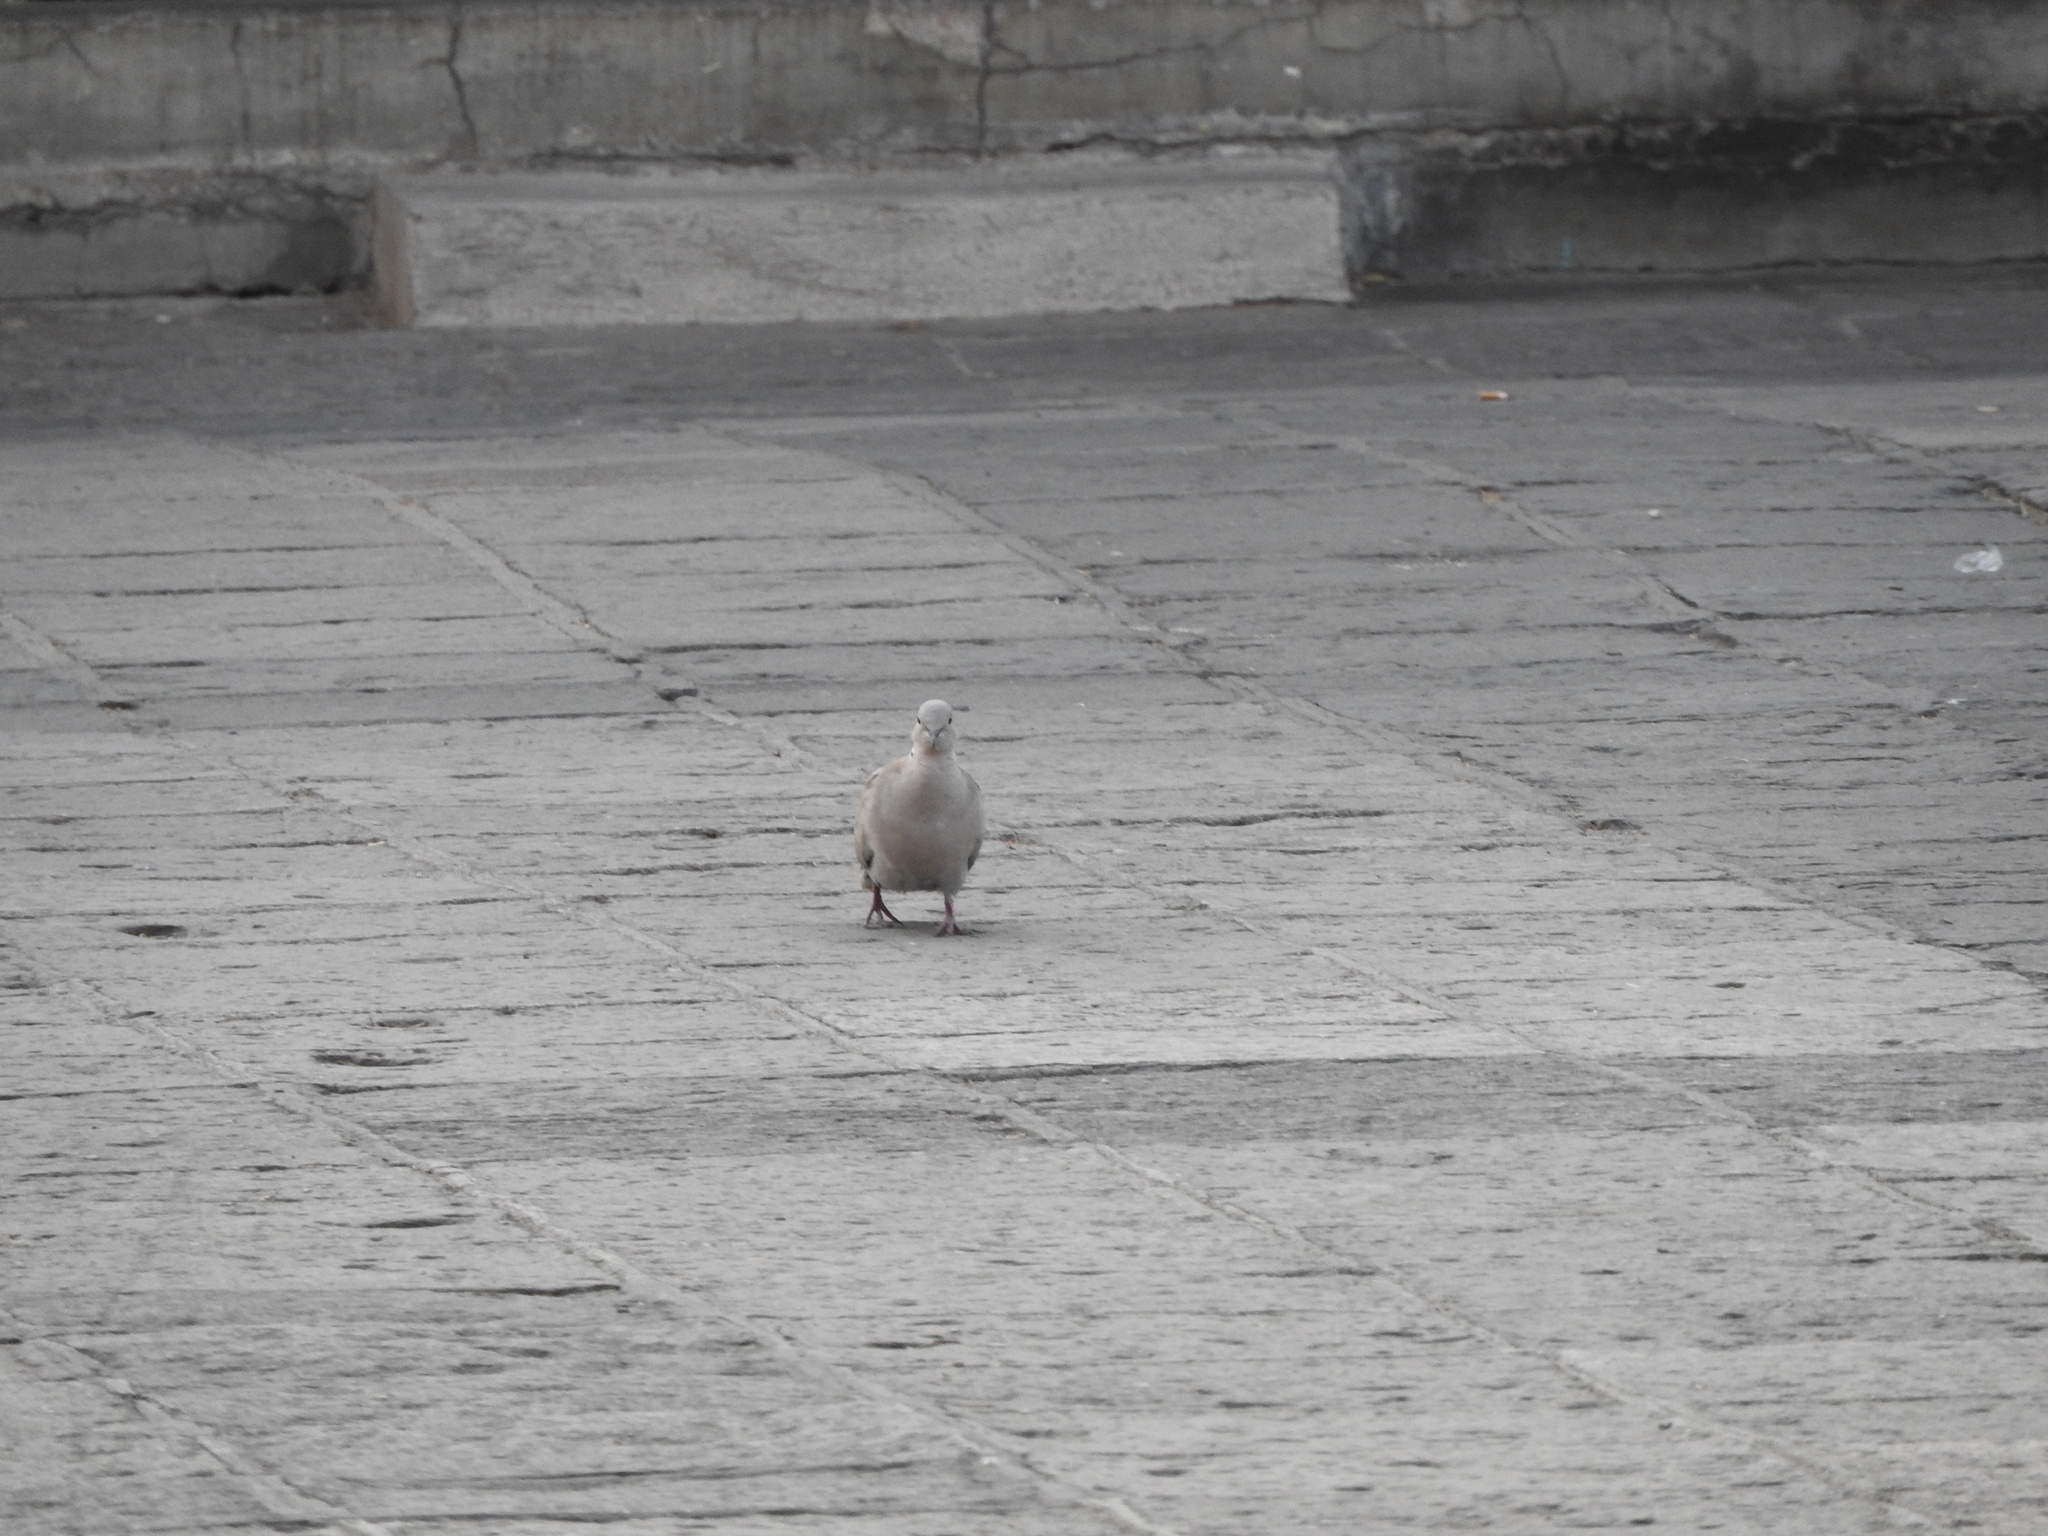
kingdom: Animalia
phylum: Chordata
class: Aves
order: Columbiformes
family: Columbidae
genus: Streptopelia
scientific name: Streptopelia decaocto
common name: Eurasian collared dove
